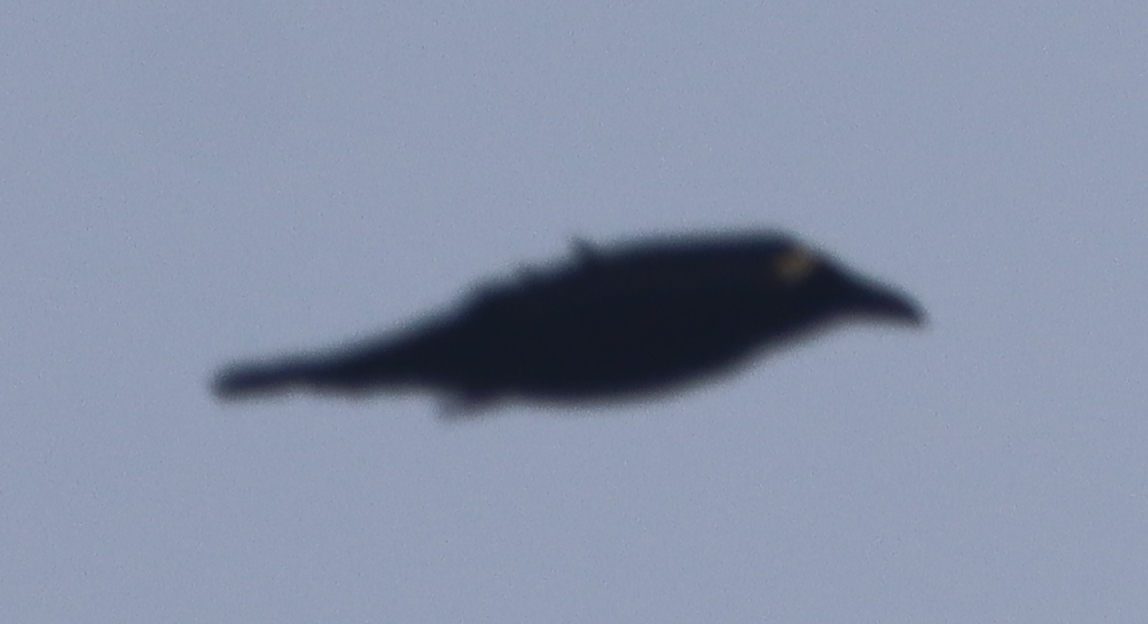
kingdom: Animalia
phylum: Chordata
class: Aves
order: Passeriformes
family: Corvidae
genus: Corvus
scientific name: Corvus corax
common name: Common raven
